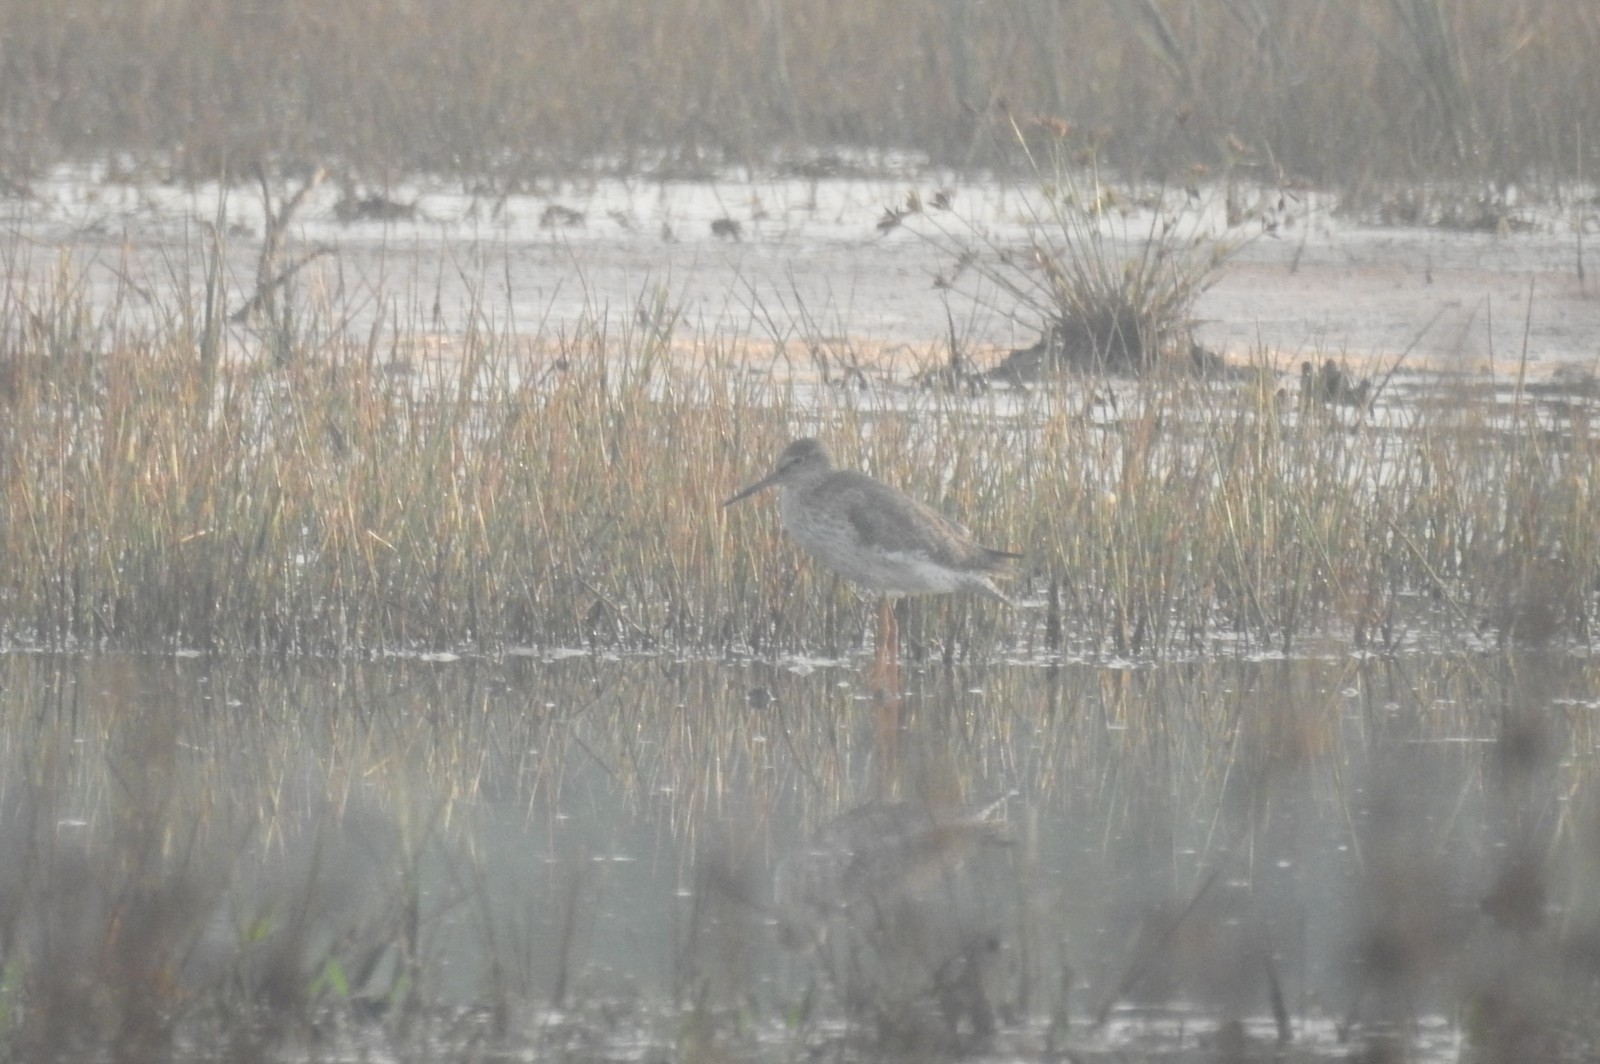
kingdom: Animalia
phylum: Chordata
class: Aves
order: Charadriiformes
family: Scolopacidae
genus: Tringa
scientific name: Tringa totanus
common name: Common redshank
